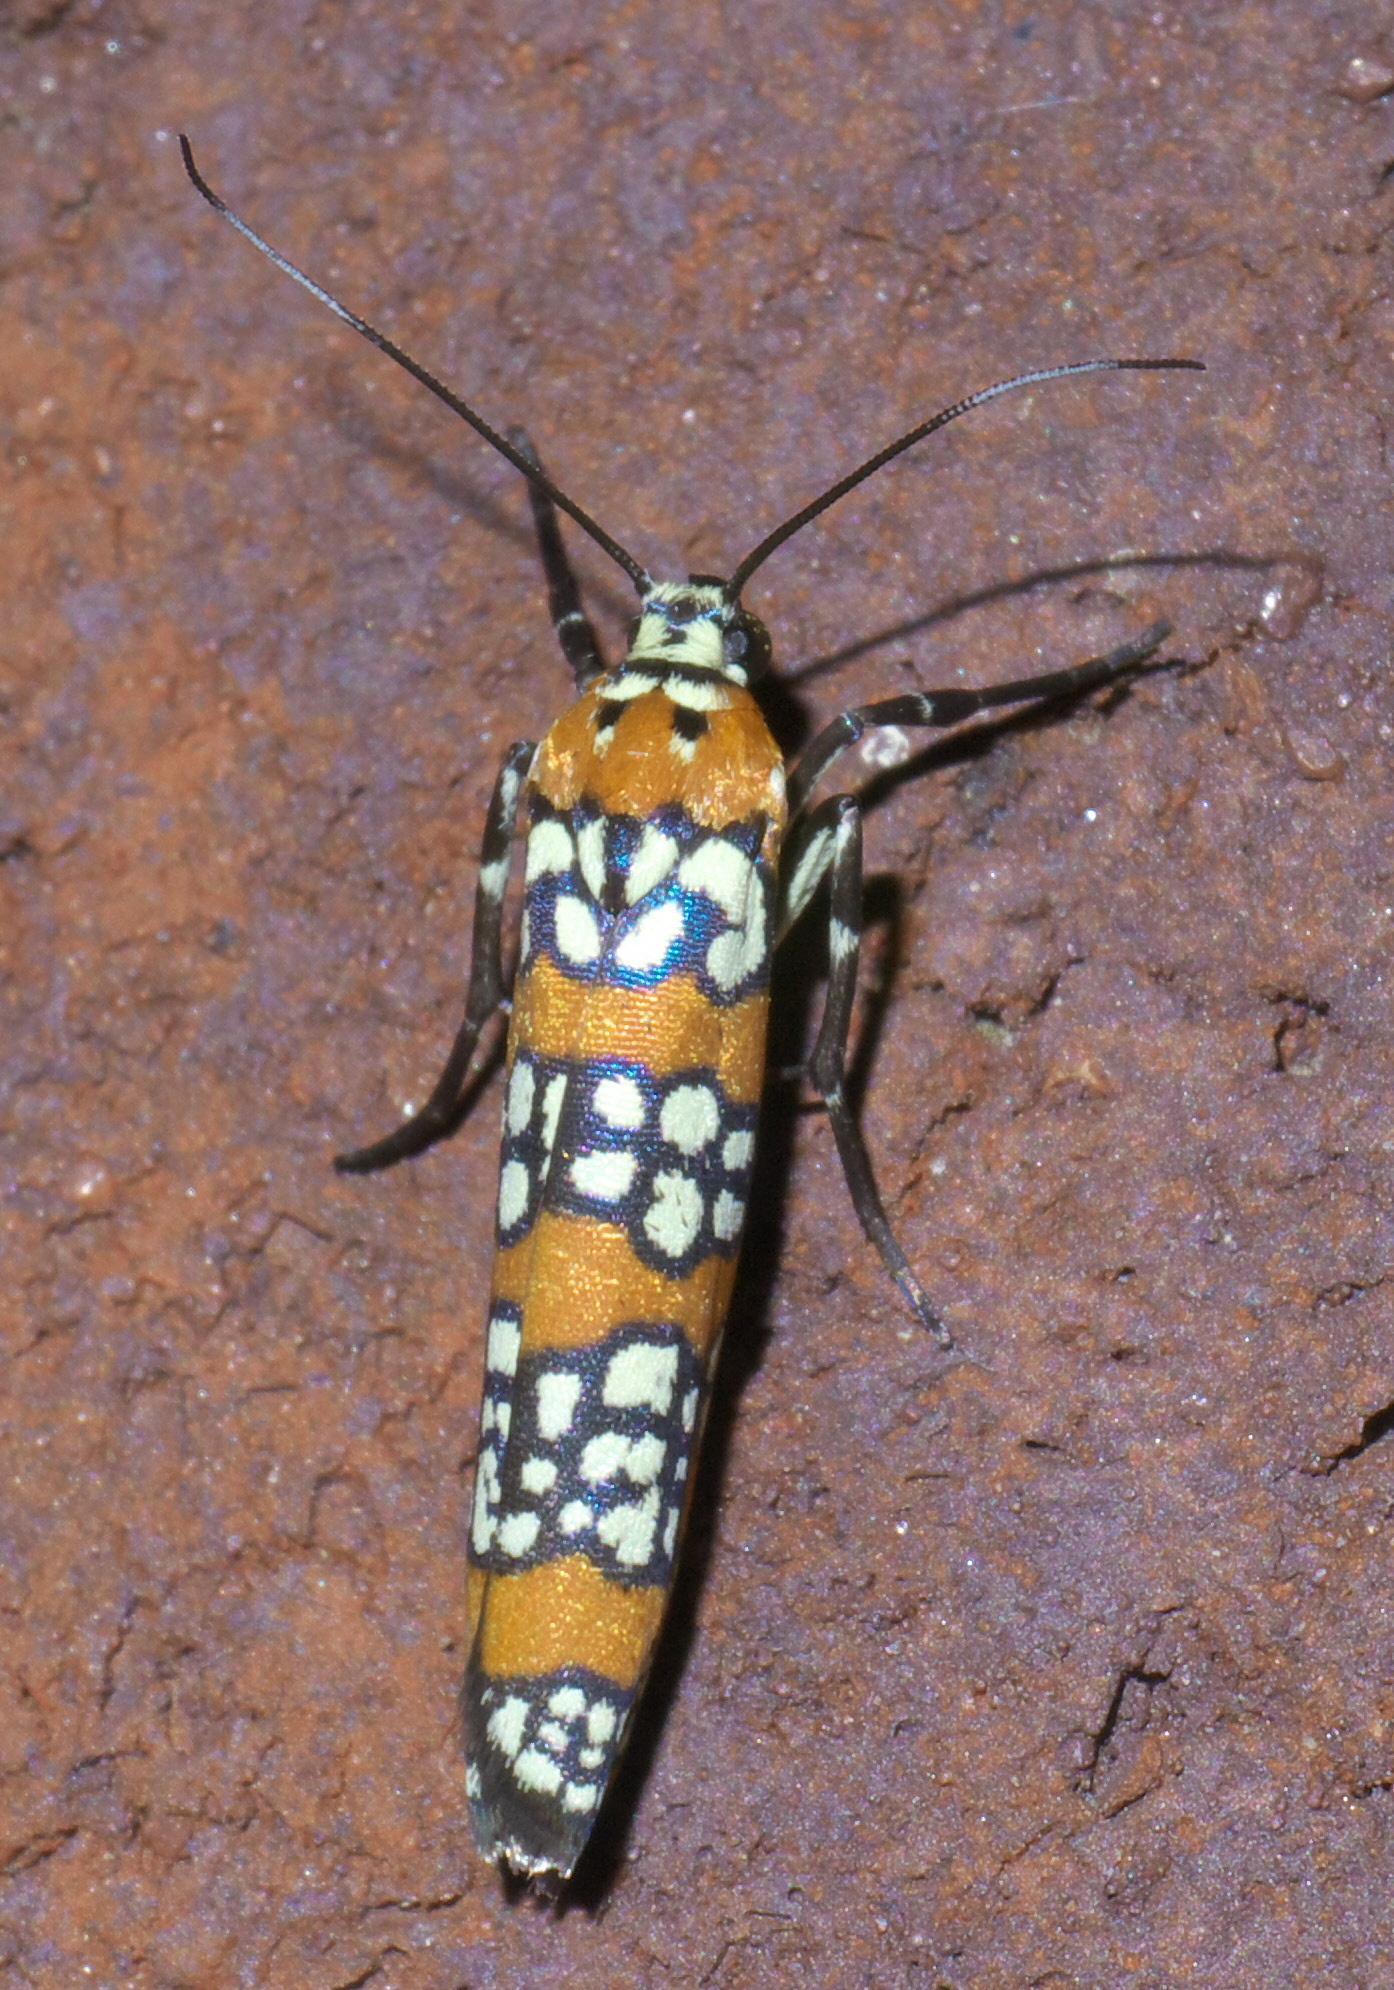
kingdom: Animalia
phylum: Arthropoda
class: Insecta
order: Lepidoptera
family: Attevidae
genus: Atteva
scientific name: Atteva punctella
